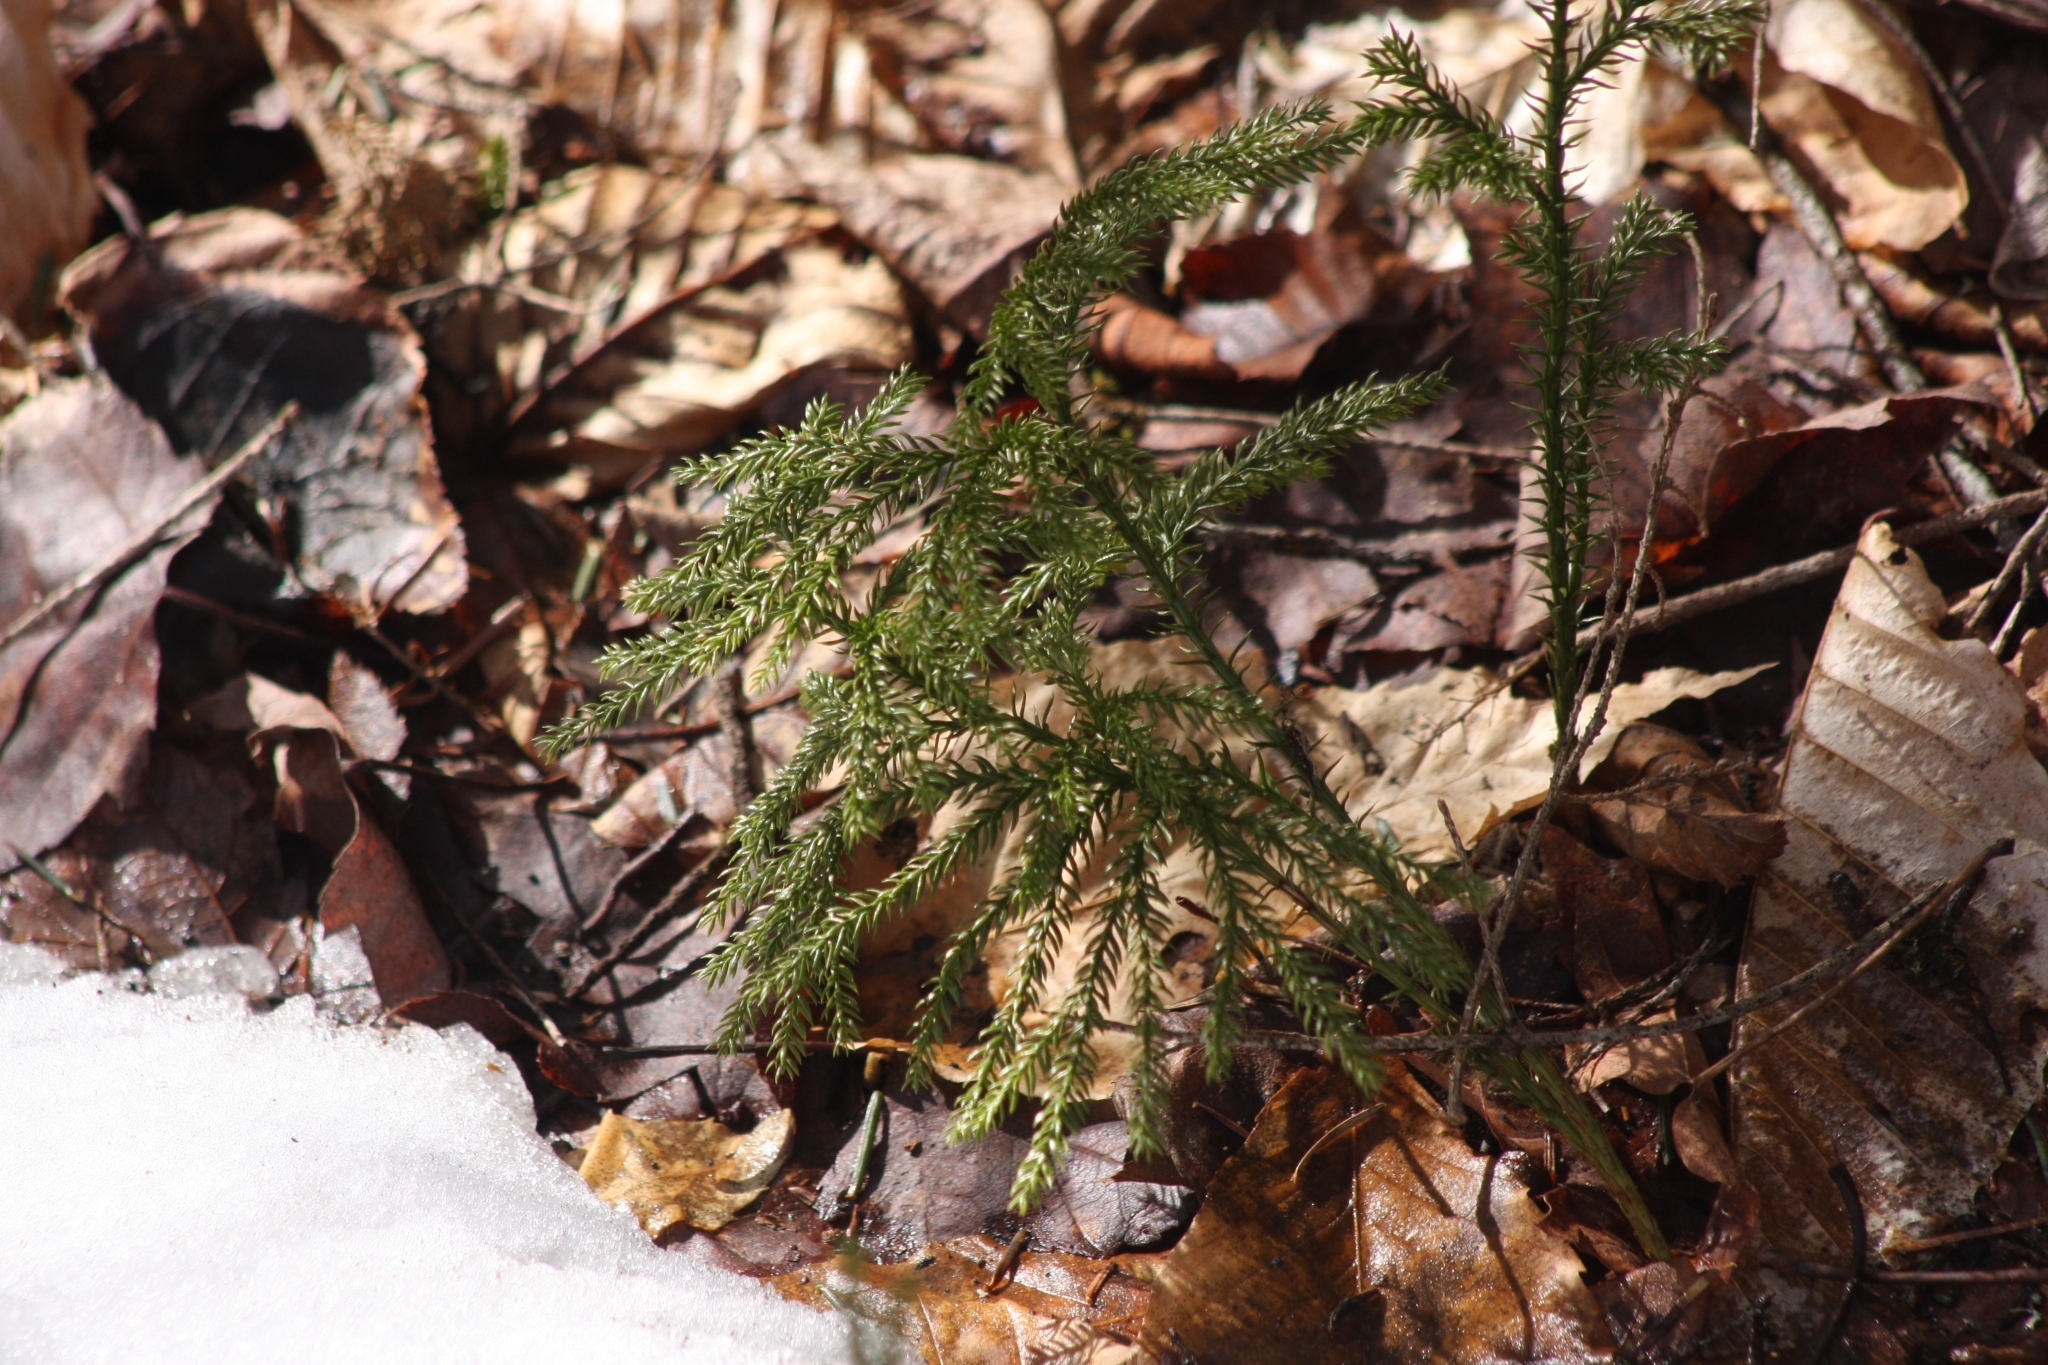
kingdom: Plantae
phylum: Tracheophyta
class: Lycopodiopsida
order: Lycopodiales
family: Lycopodiaceae
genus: Dendrolycopodium
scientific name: Dendrolycopodium dendroideum
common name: Northern tree-clubmoss
